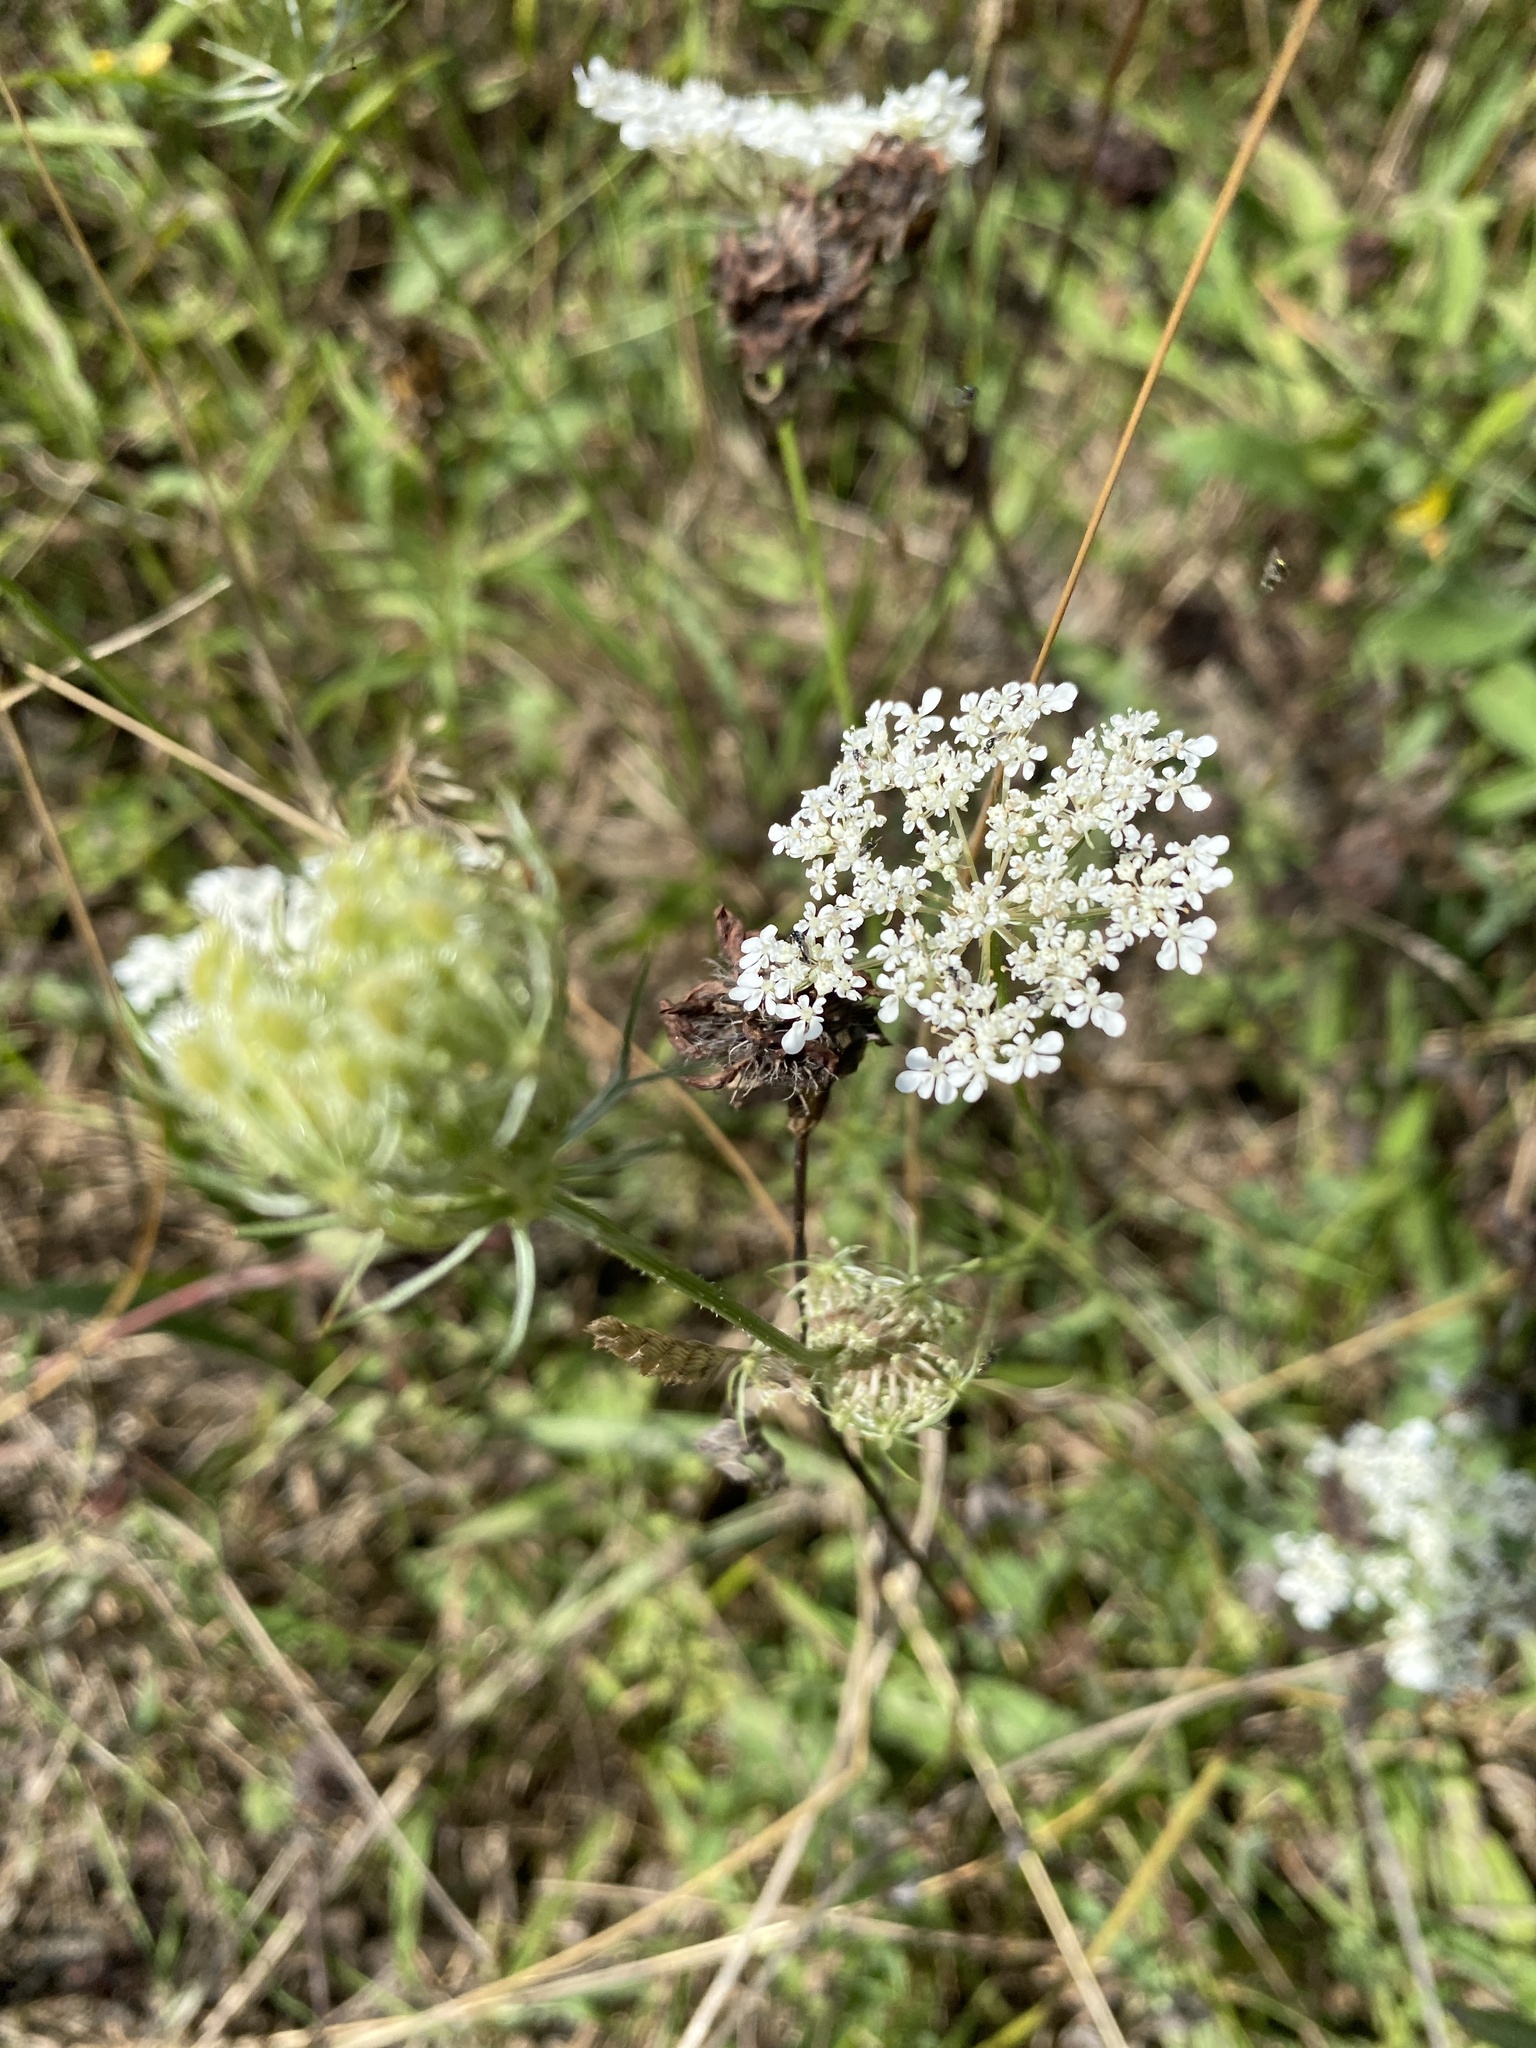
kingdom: Plantae
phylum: Tracheophyta
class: Magnoliopsida
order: Apiales
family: Apiaceae
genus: Daucus
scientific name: Daucus carota
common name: Wild carrot
